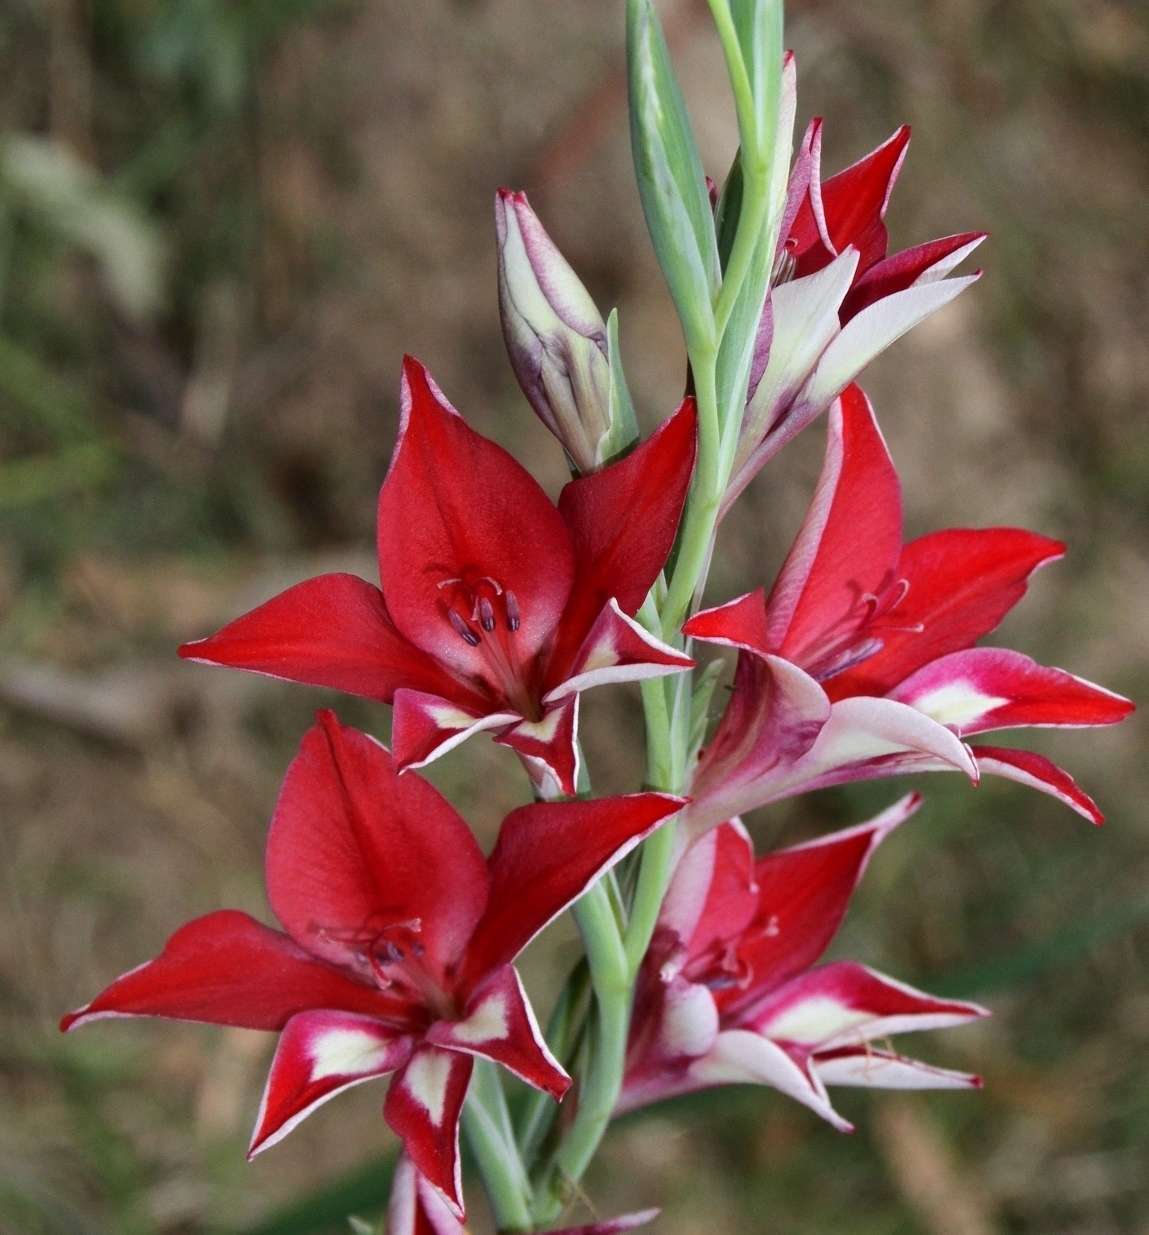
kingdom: Plantae
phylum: Tracheophyta
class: Liliopsida
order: Asparagales
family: Iridaceae
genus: Gladiolus
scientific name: Gladiolus cardinalis
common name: New year-lily
